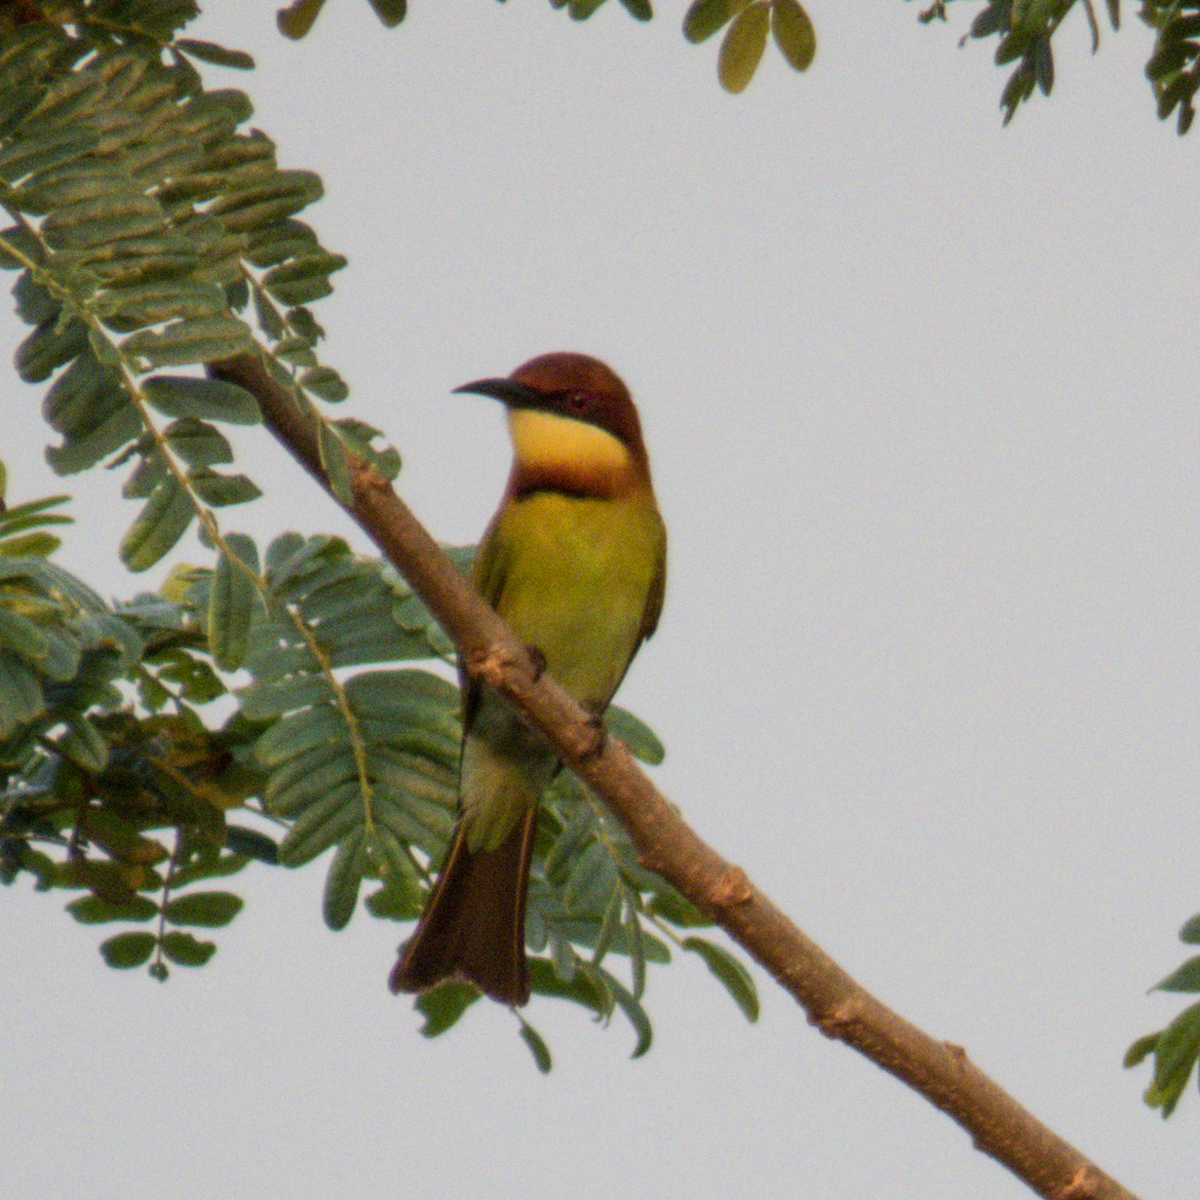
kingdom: Animalia
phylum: Chordata
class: Aves
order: Coraciiformes
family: Meropidae
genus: Merops
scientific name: Merops leschenaulti
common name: Chestnut-headed bee-eater
